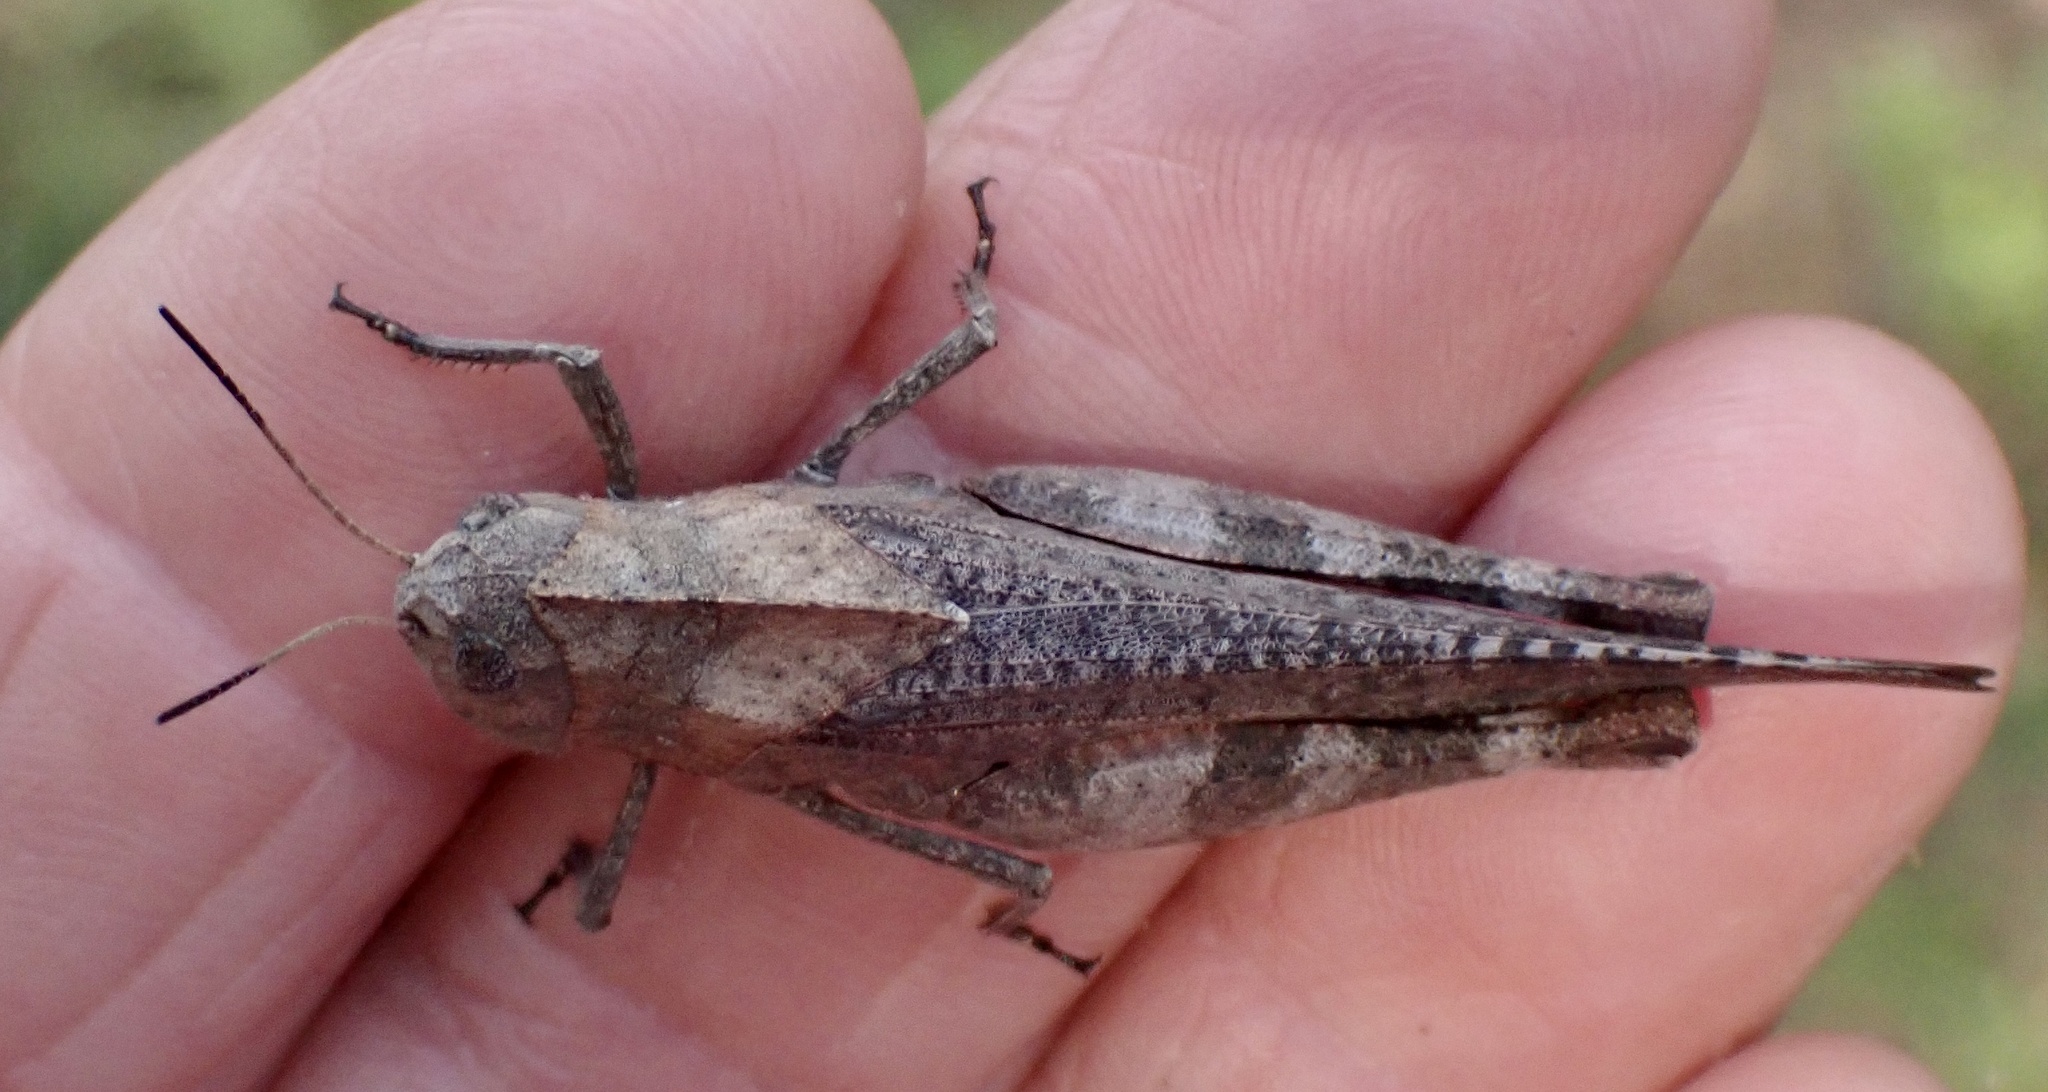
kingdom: Animalia
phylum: Arthropoda
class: Insecta
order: Orthoptera
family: Acrididae
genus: Arphia
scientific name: Arphia xanthoptera
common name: Autumn yellow-winged grasshopper
